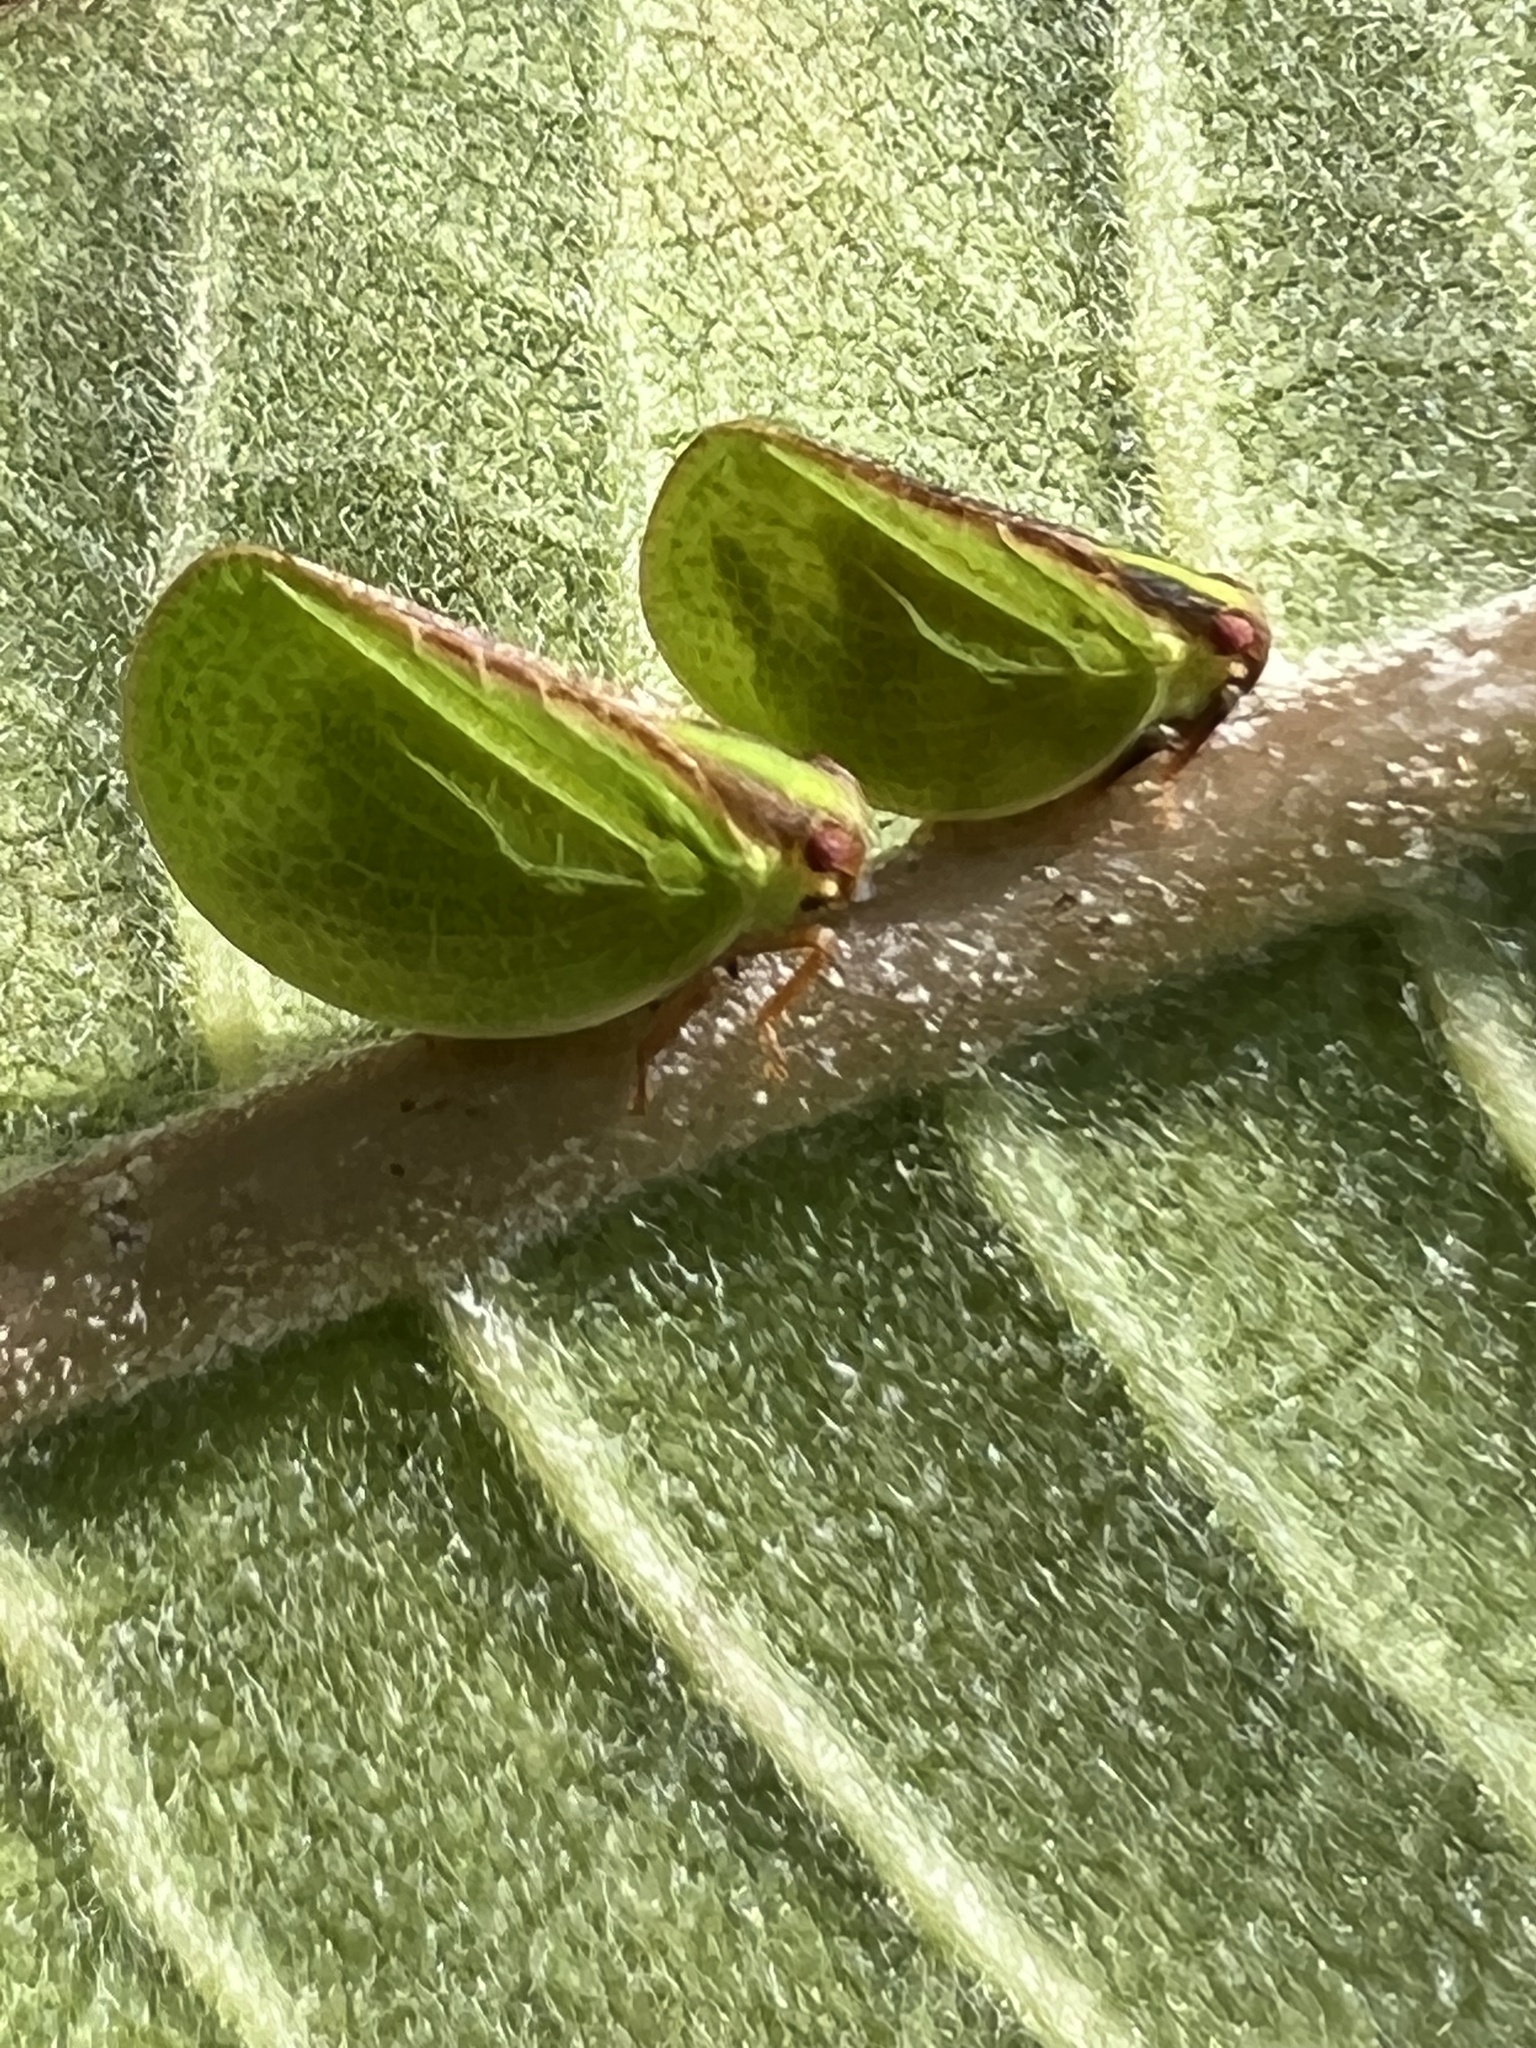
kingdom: Animalia
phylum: Arthropoda
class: Insecta
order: Hemiptera
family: Acanaloniidae
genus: Acanalonia
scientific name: Acanalonia bivittata
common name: Two-striped planthopper
